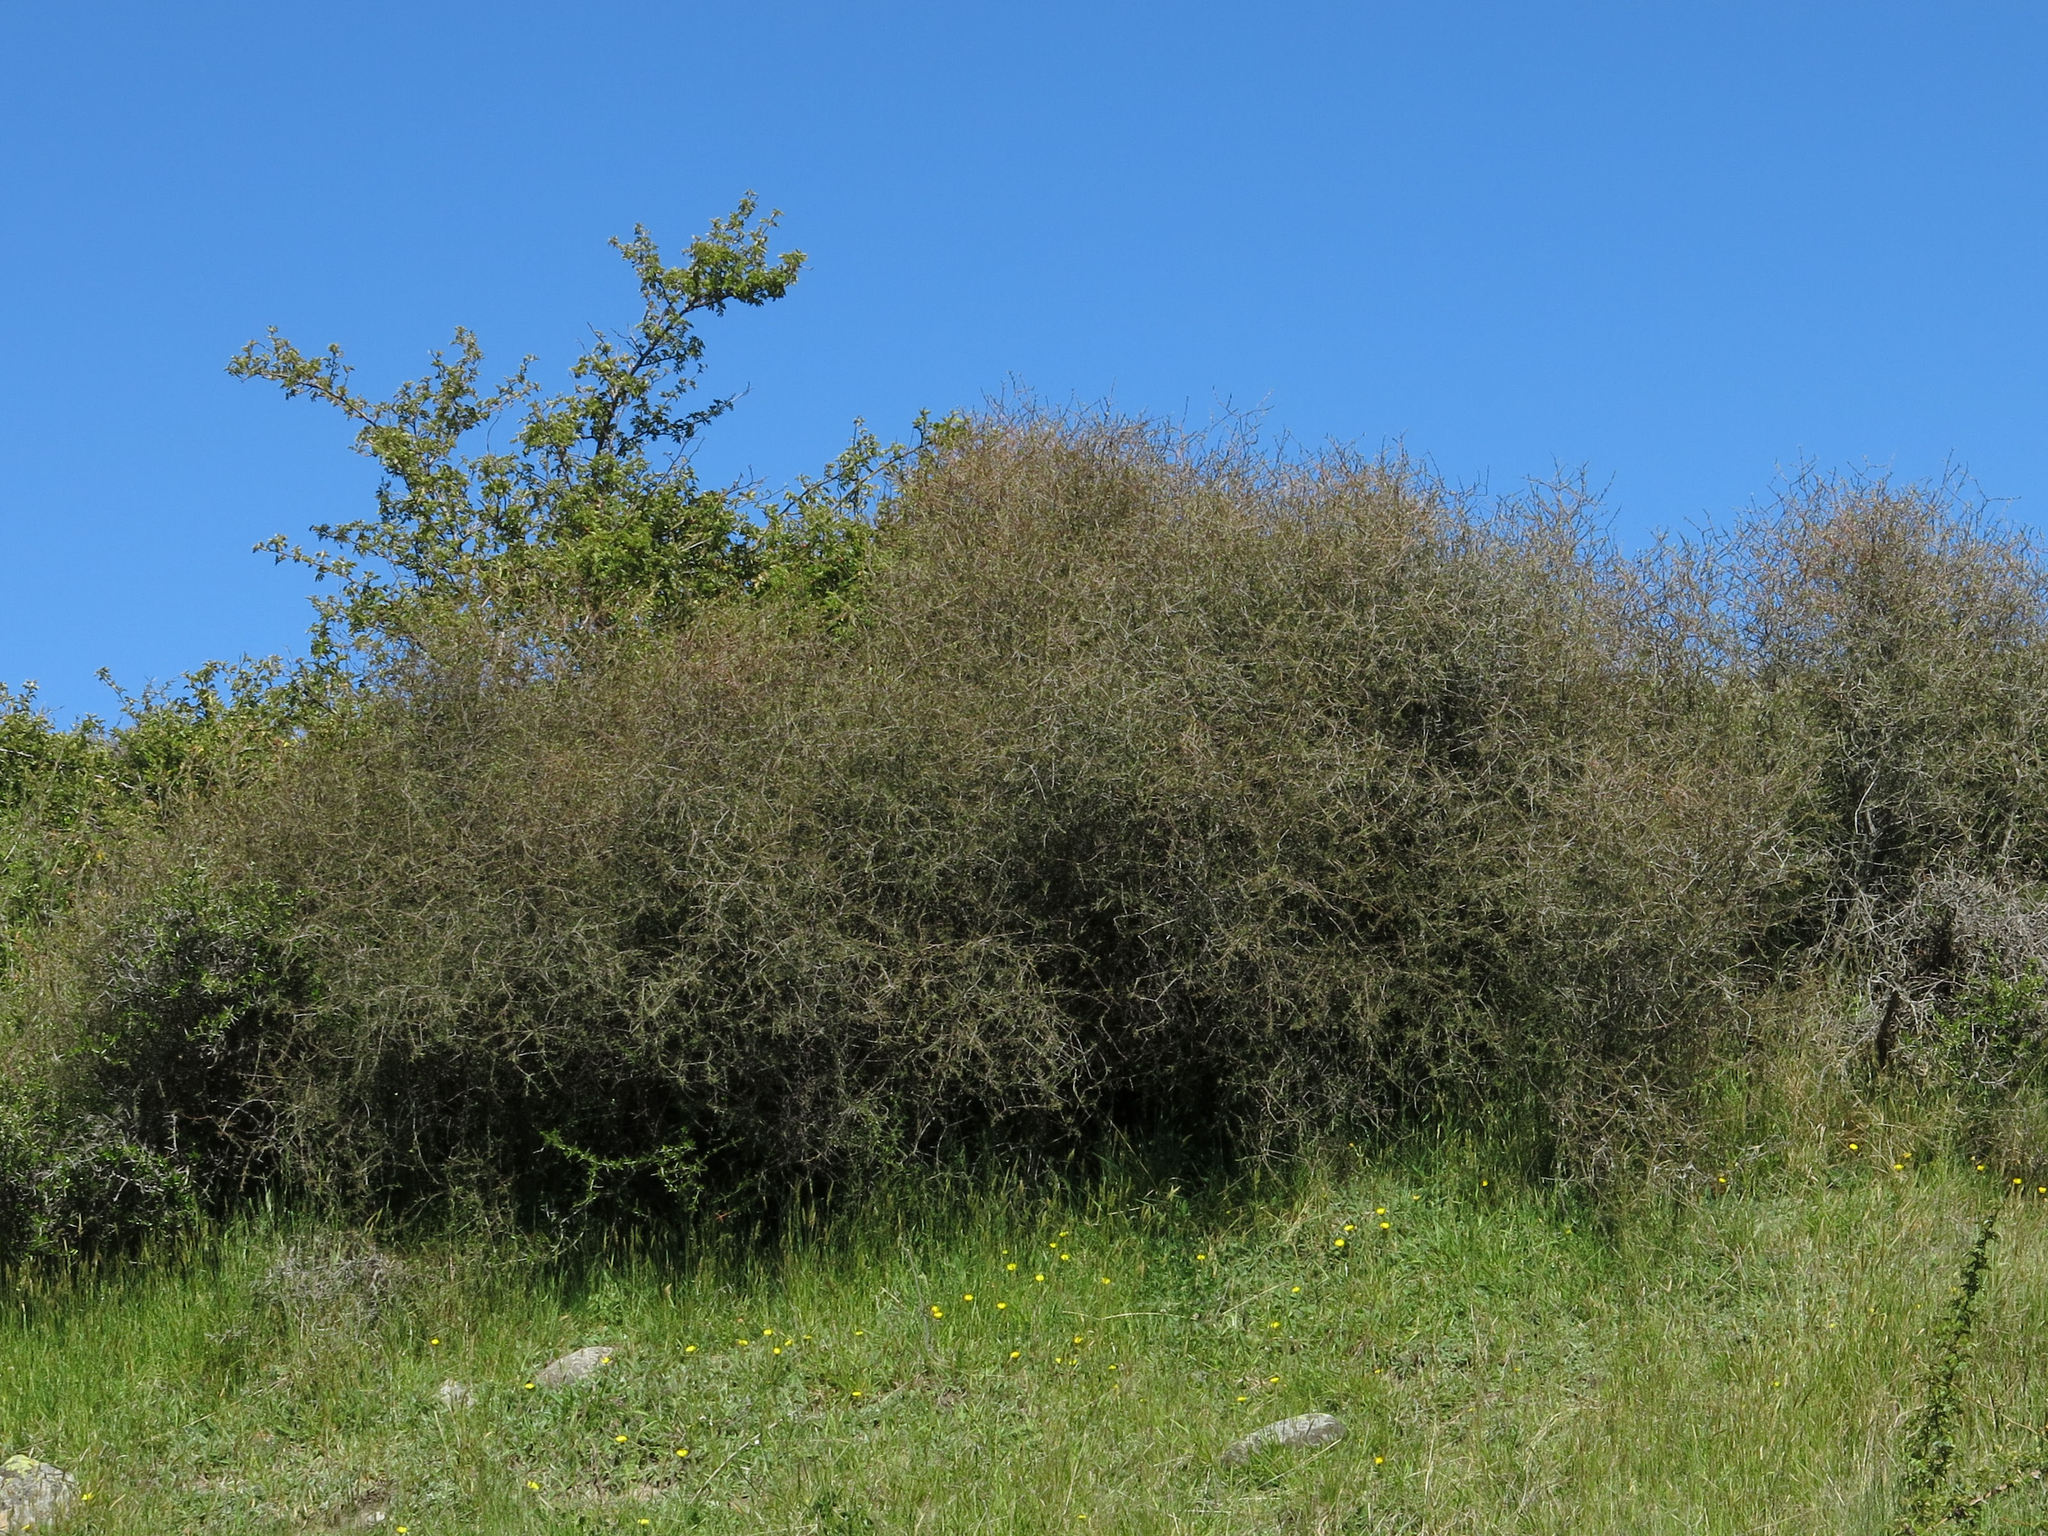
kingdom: Plantae
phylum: Tracheophyta
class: Magnoliopsida
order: Gentianales
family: Rubiaceae
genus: Coprosma
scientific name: Coprosma intertexta
